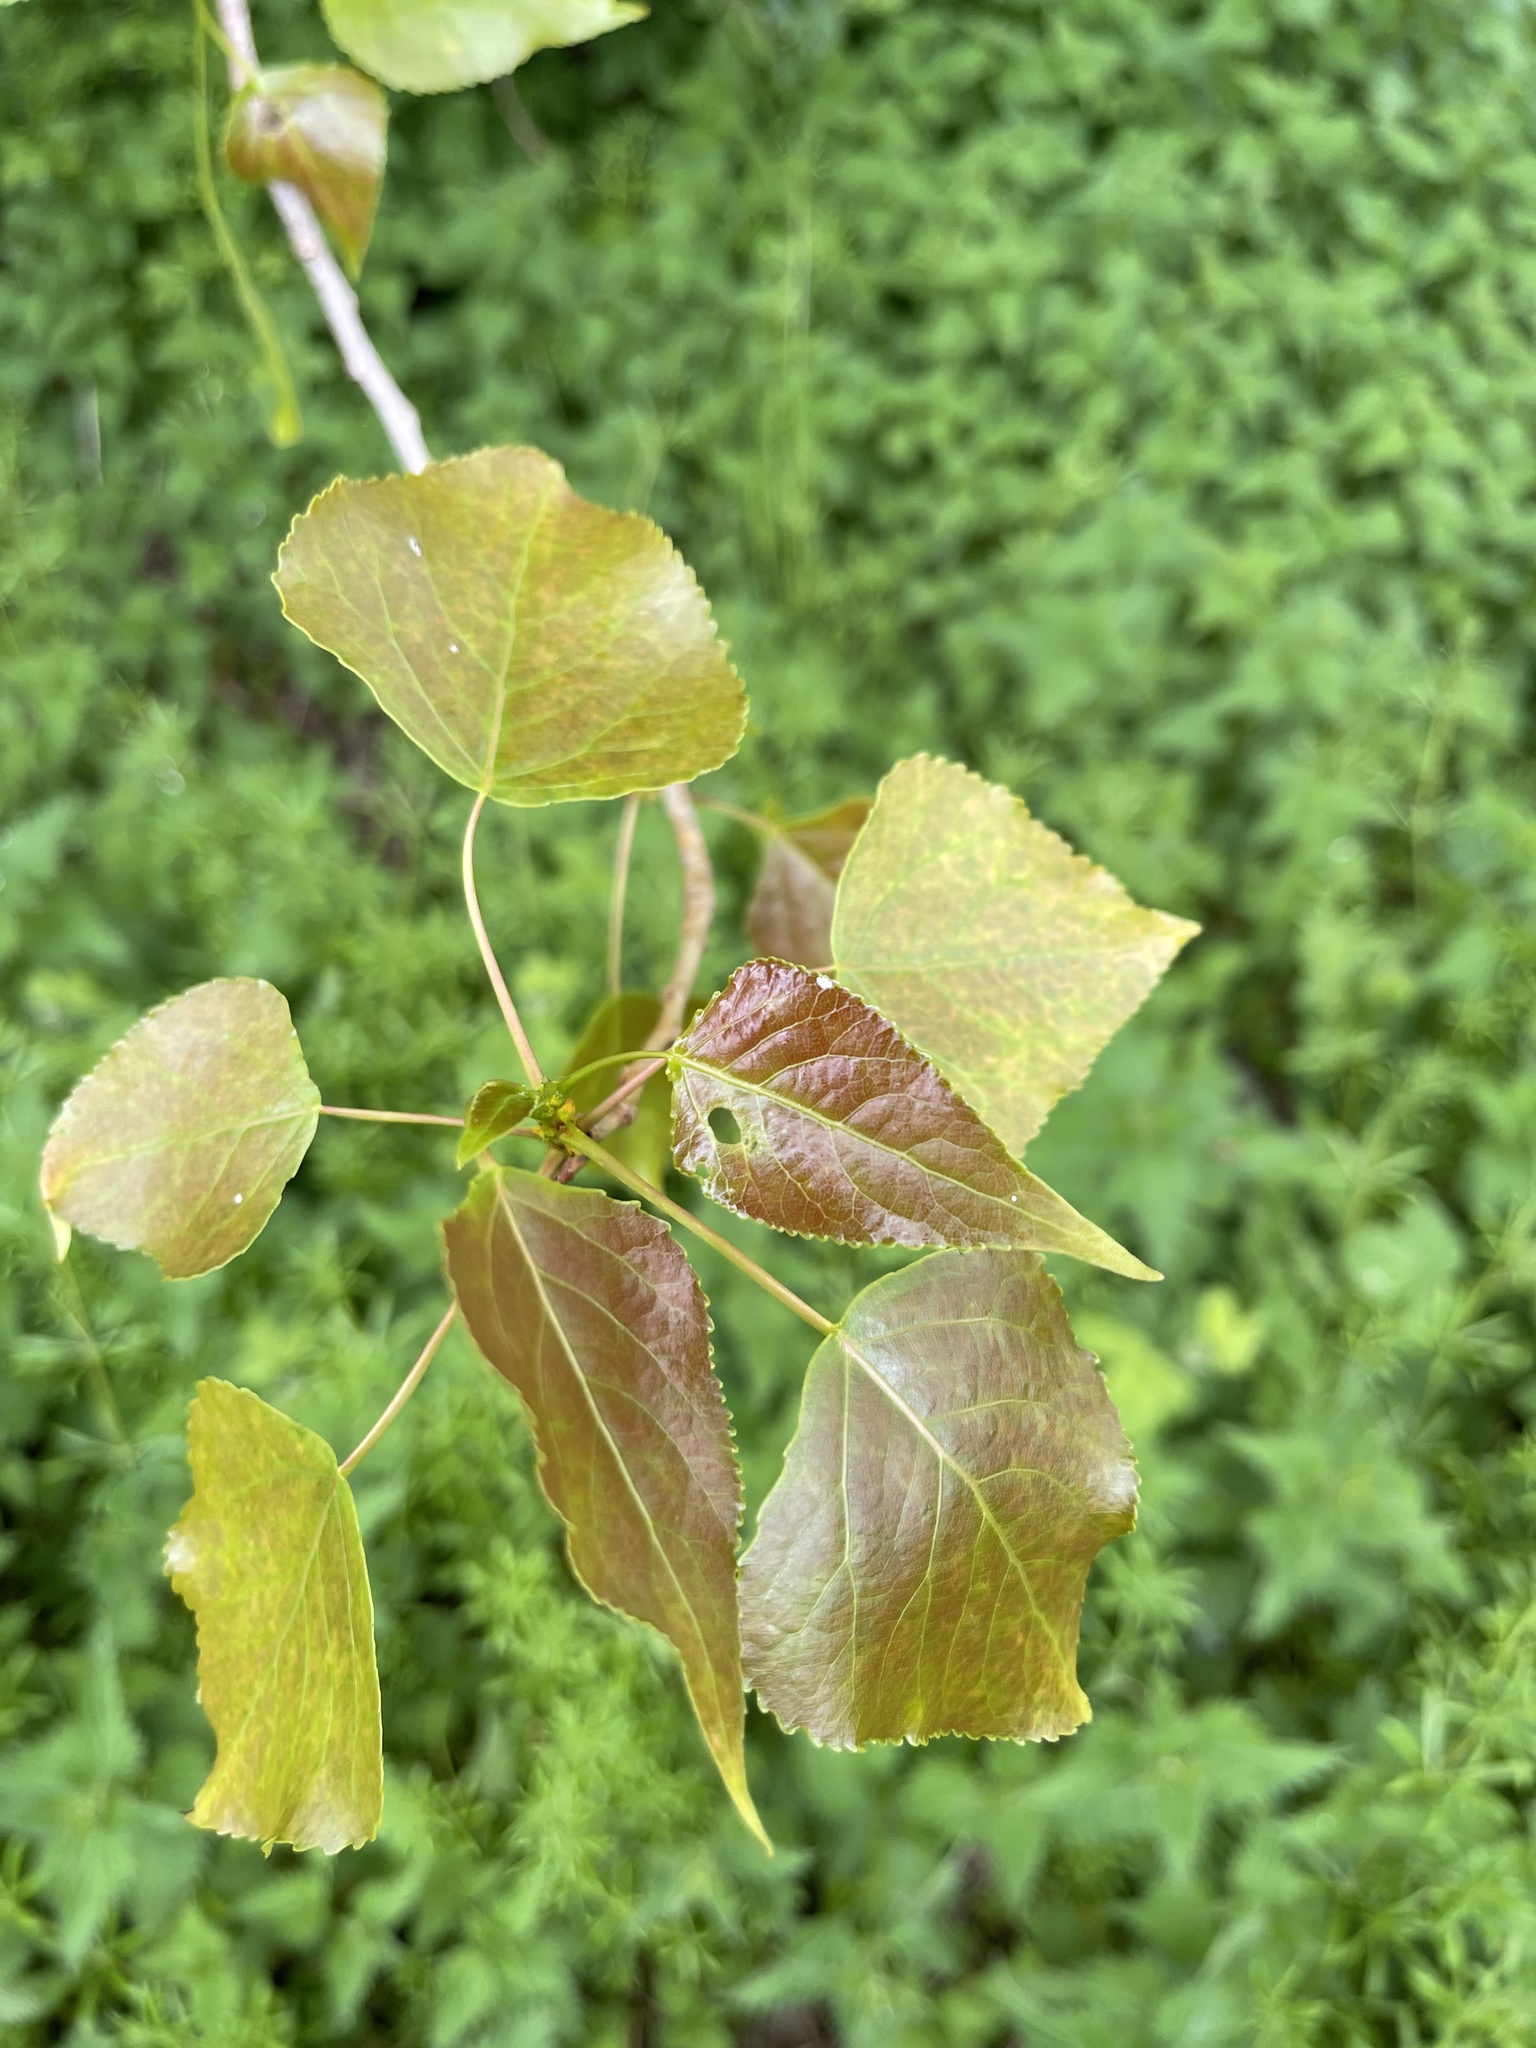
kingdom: Plantae
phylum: Tracheophyta
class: Magnoliopsida
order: Malpighiales
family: Salicaceae
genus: Populus
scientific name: Populus canadensis
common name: Carolina poplar
